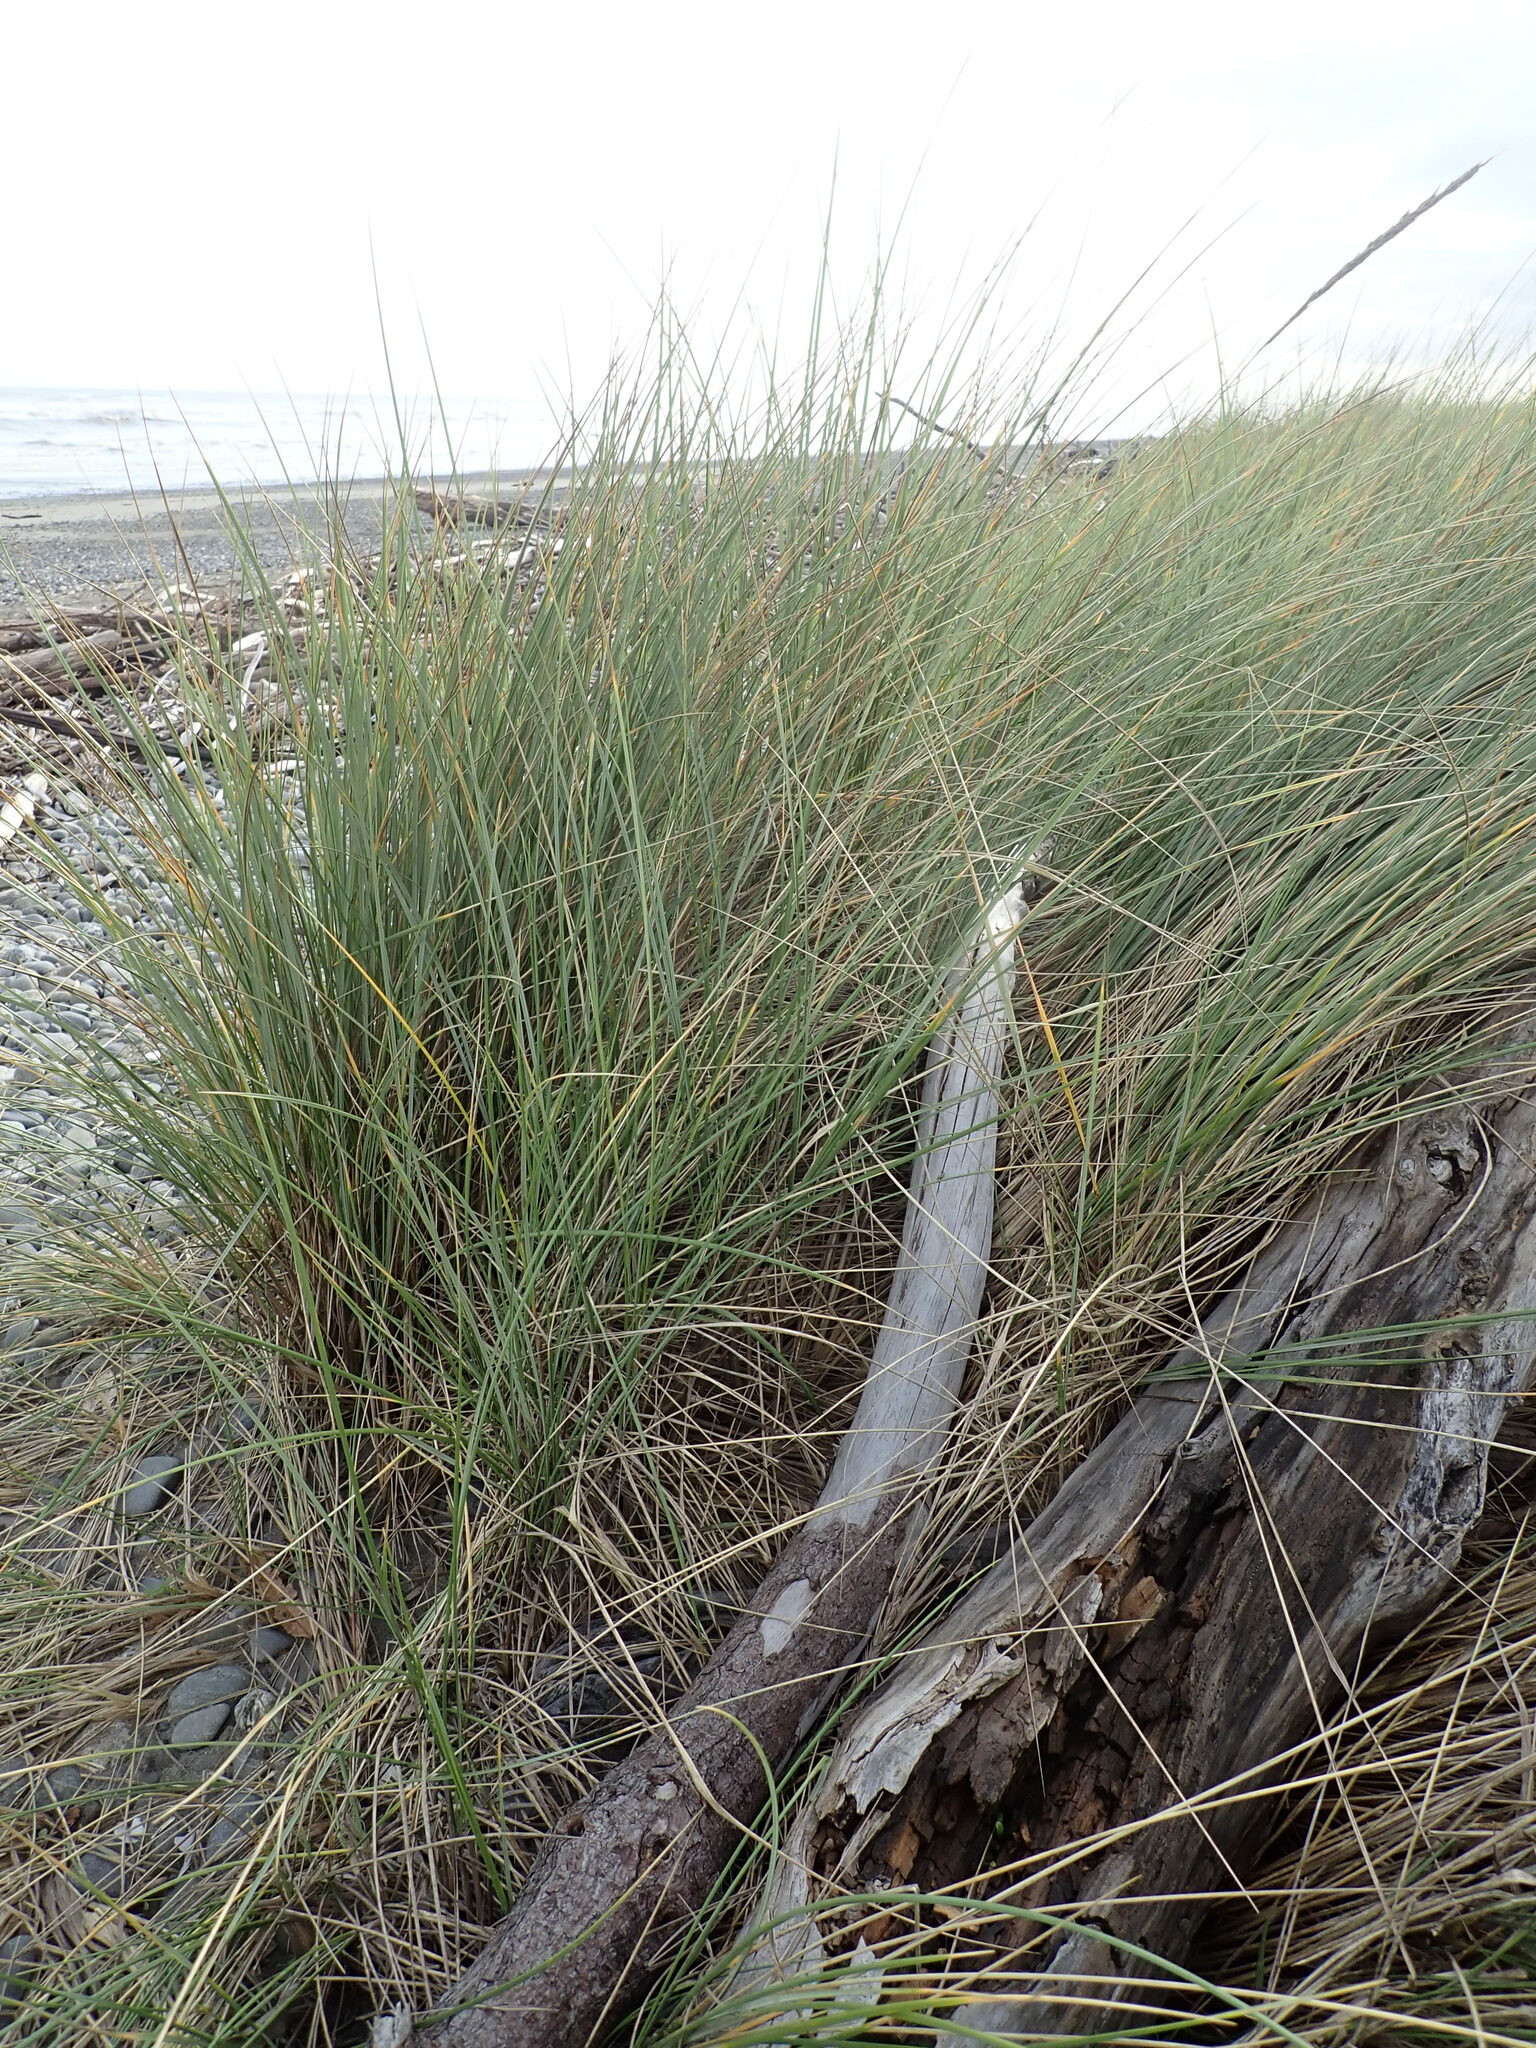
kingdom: Plantae
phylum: Tracheophyta
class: Liliopsida
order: Poales
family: Poaceae
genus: Calamagrostis
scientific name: Calamagrostis arenaria
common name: European beachgrass
